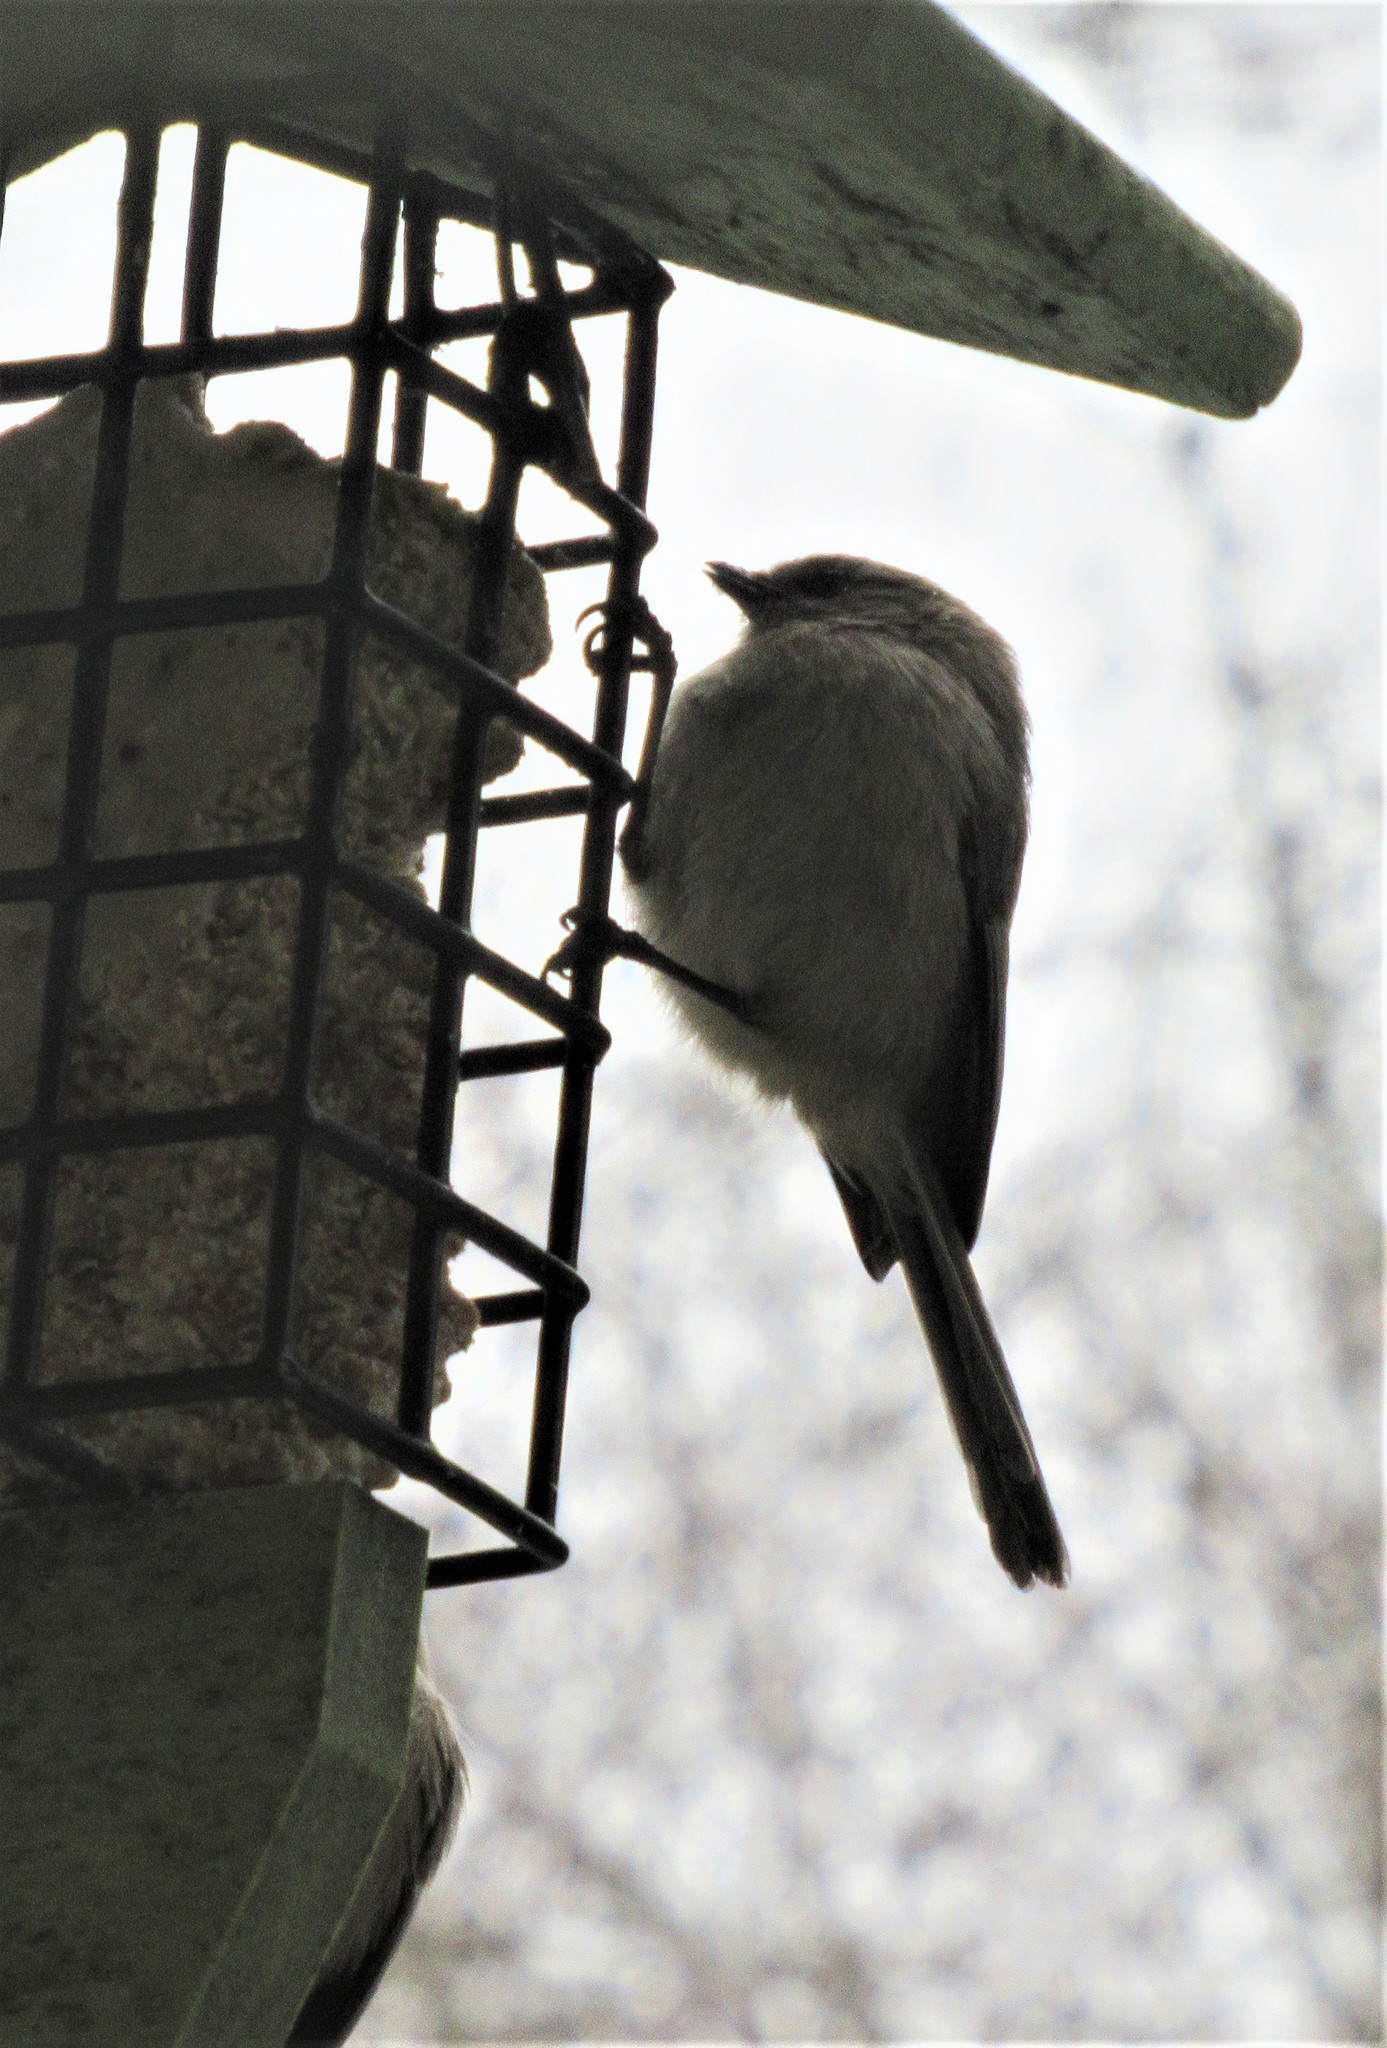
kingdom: Animalia
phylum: Chordata
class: Aves
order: Passeriformes
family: Aegithalidae
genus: Psaltriparus
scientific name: Psaltriparus minimus
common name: American bushtit
